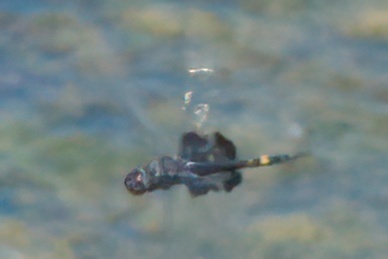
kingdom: Animalia
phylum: Arthropoda
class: Insecta
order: Odonata
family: Libellulidae
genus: Tramea
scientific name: Tramea lacerata
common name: Black saddlebags
